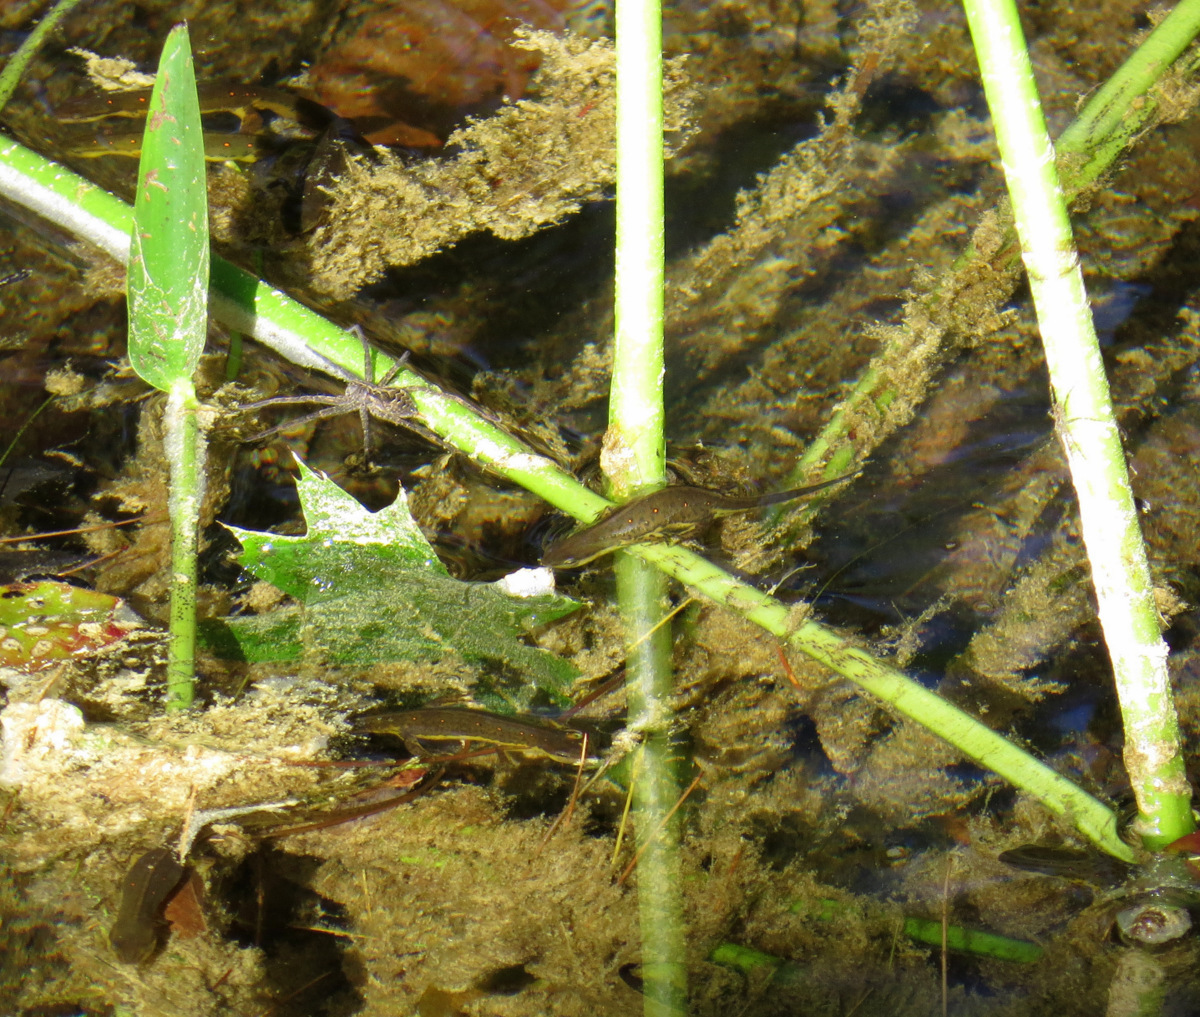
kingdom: Animalia
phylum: Chordata
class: Amphibia
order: Caudata
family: Salamandridae
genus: Notophthalmus
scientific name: Notophthalmus viridescens
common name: Eastern newt
